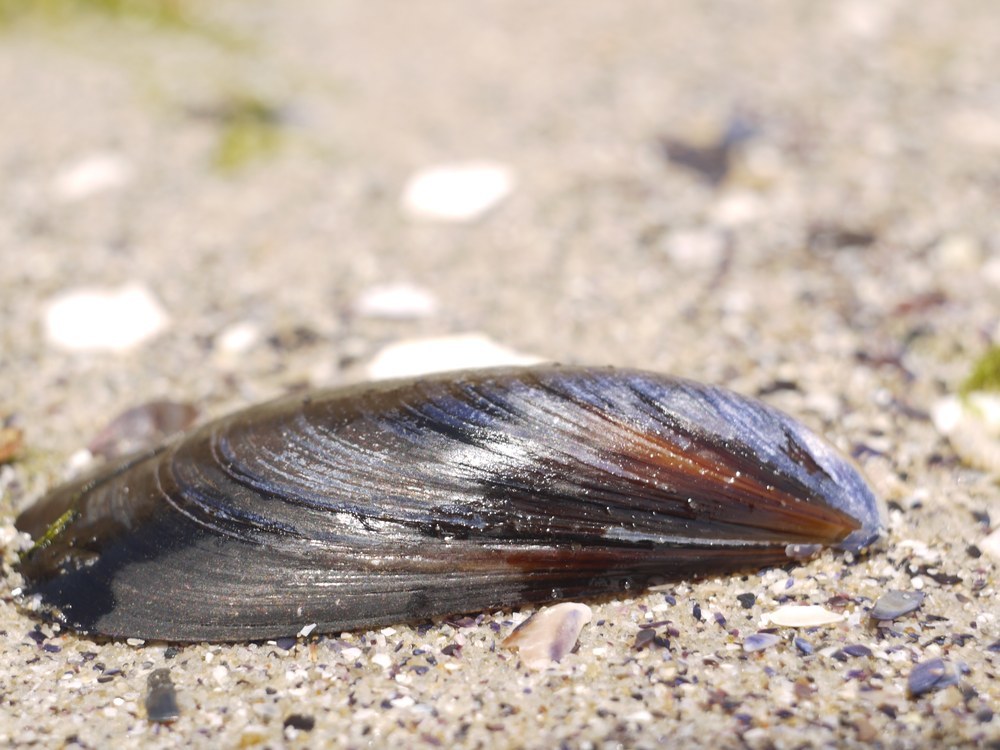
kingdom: Animalia
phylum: Mollusca
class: Bivalvia
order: Mytilida
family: Mytilidae
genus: Mytilus
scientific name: Mytilus galloprovincialis
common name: Mediterranean mussel
